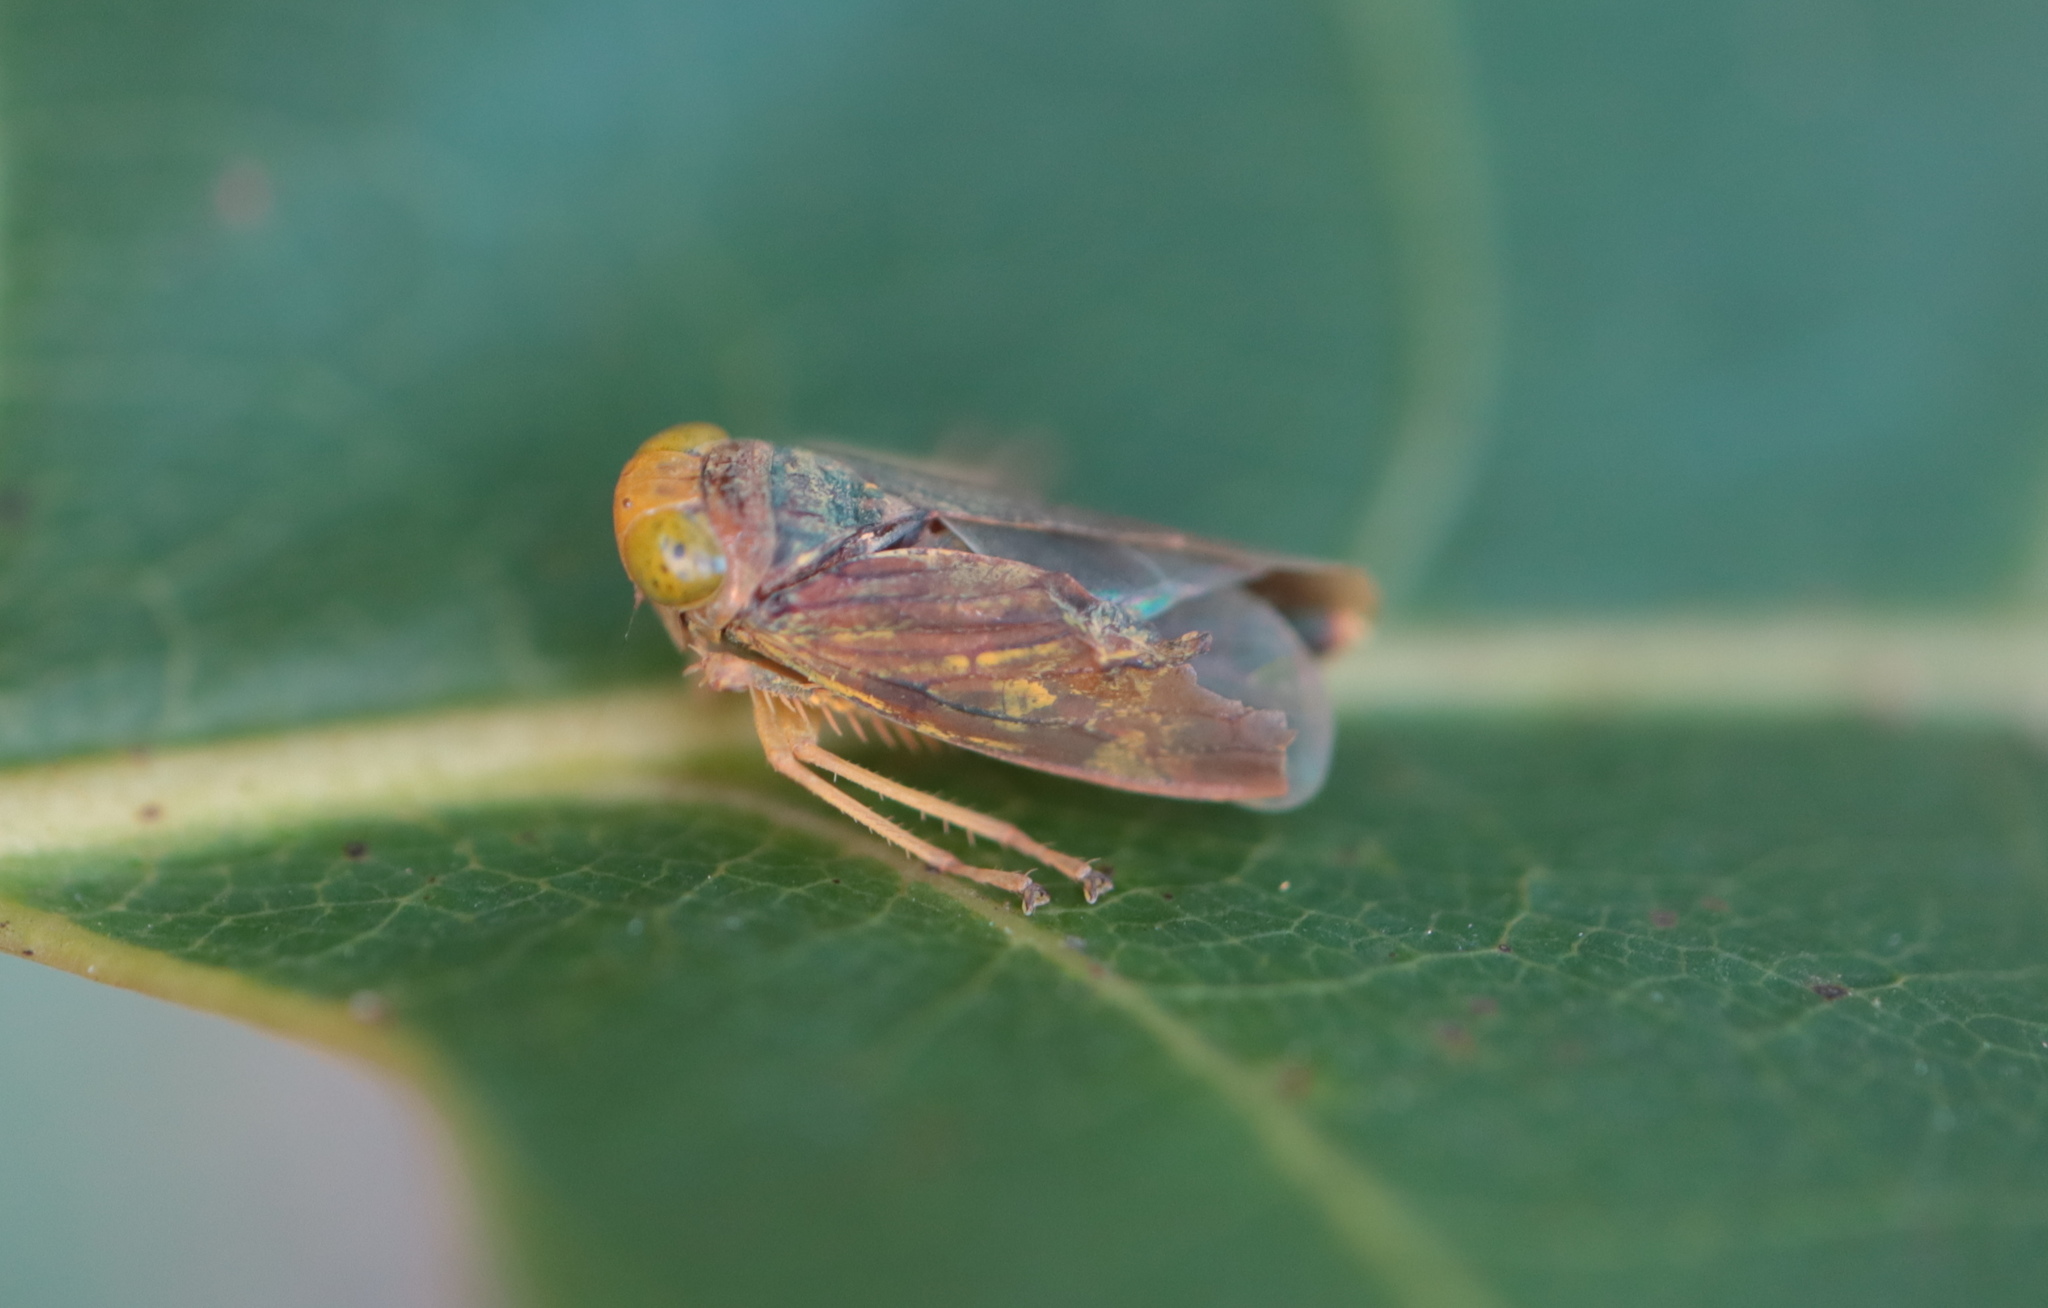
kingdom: Animalia
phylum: Arthropoda
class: Insecta
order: Hemiptera
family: Cicadellidae
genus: Jikradia
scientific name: Jikradia olitoria
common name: Coppery leafhopper
